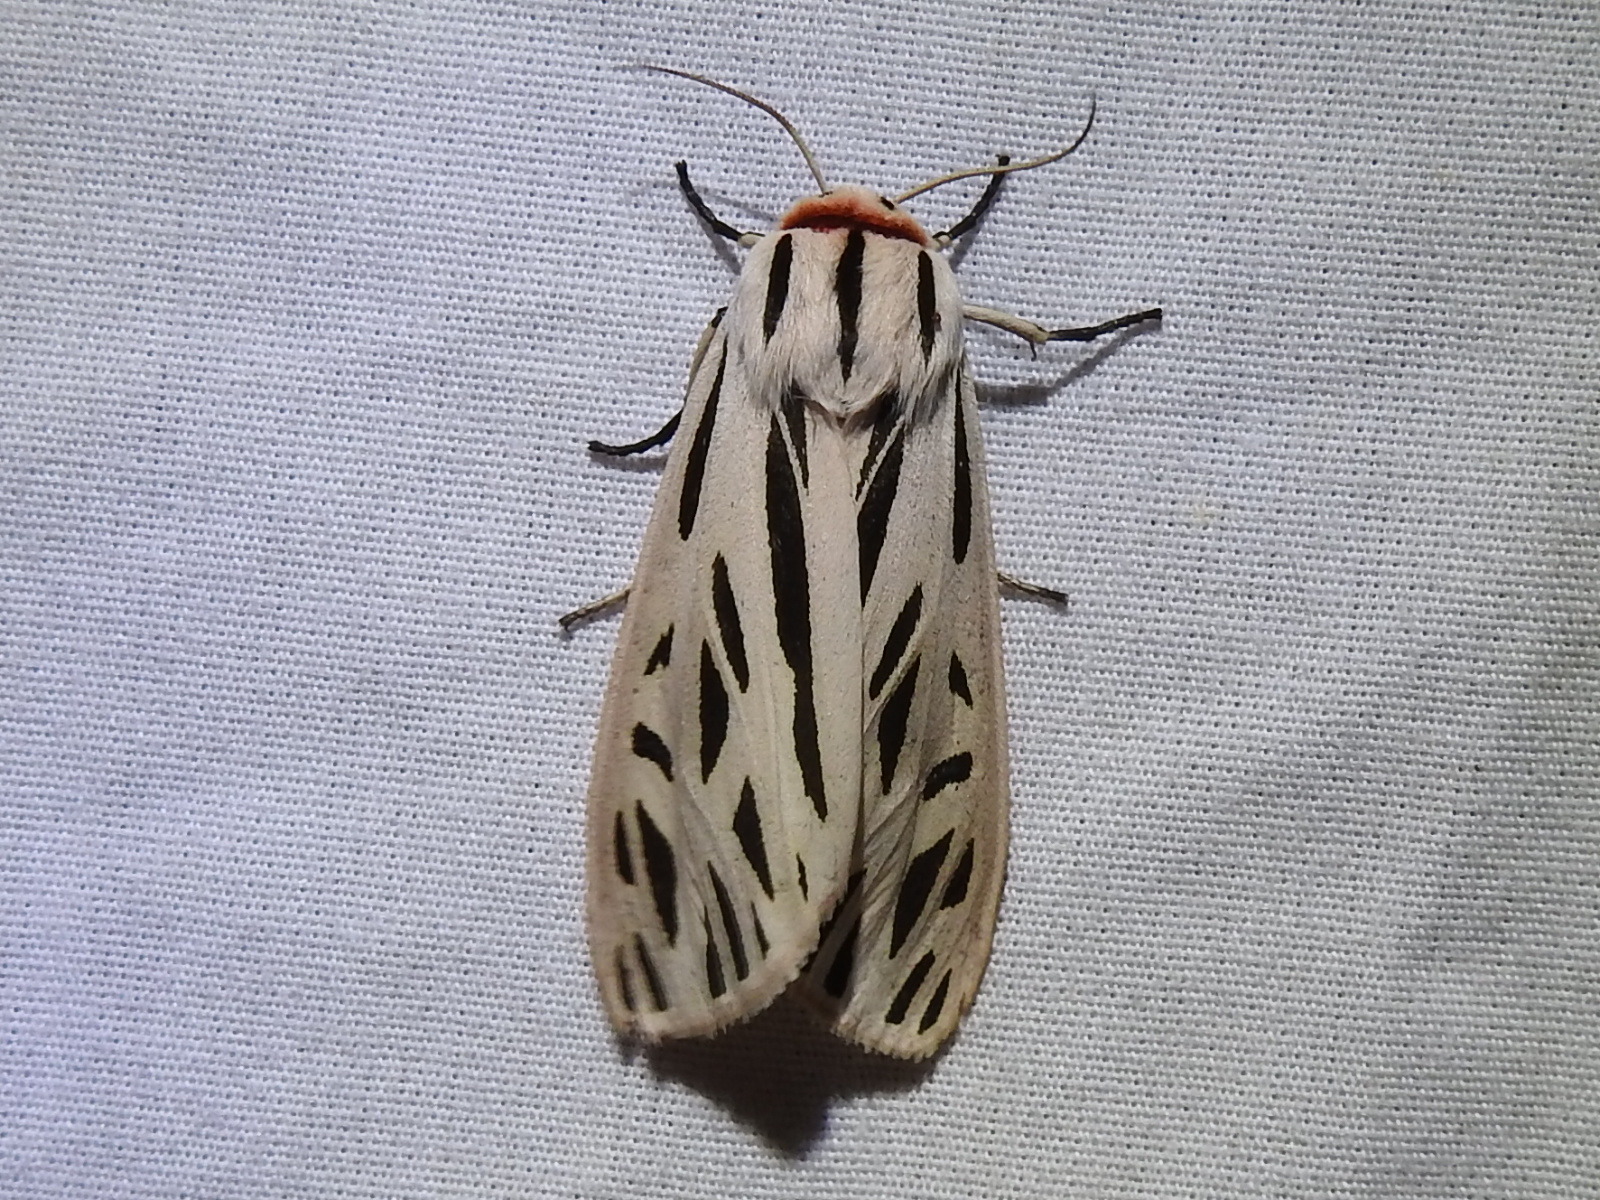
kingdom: Animalia
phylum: Arthropoda
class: Insecta
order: Lepidoptera
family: Erebidae
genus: Apantesis
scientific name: Apantesis arge
